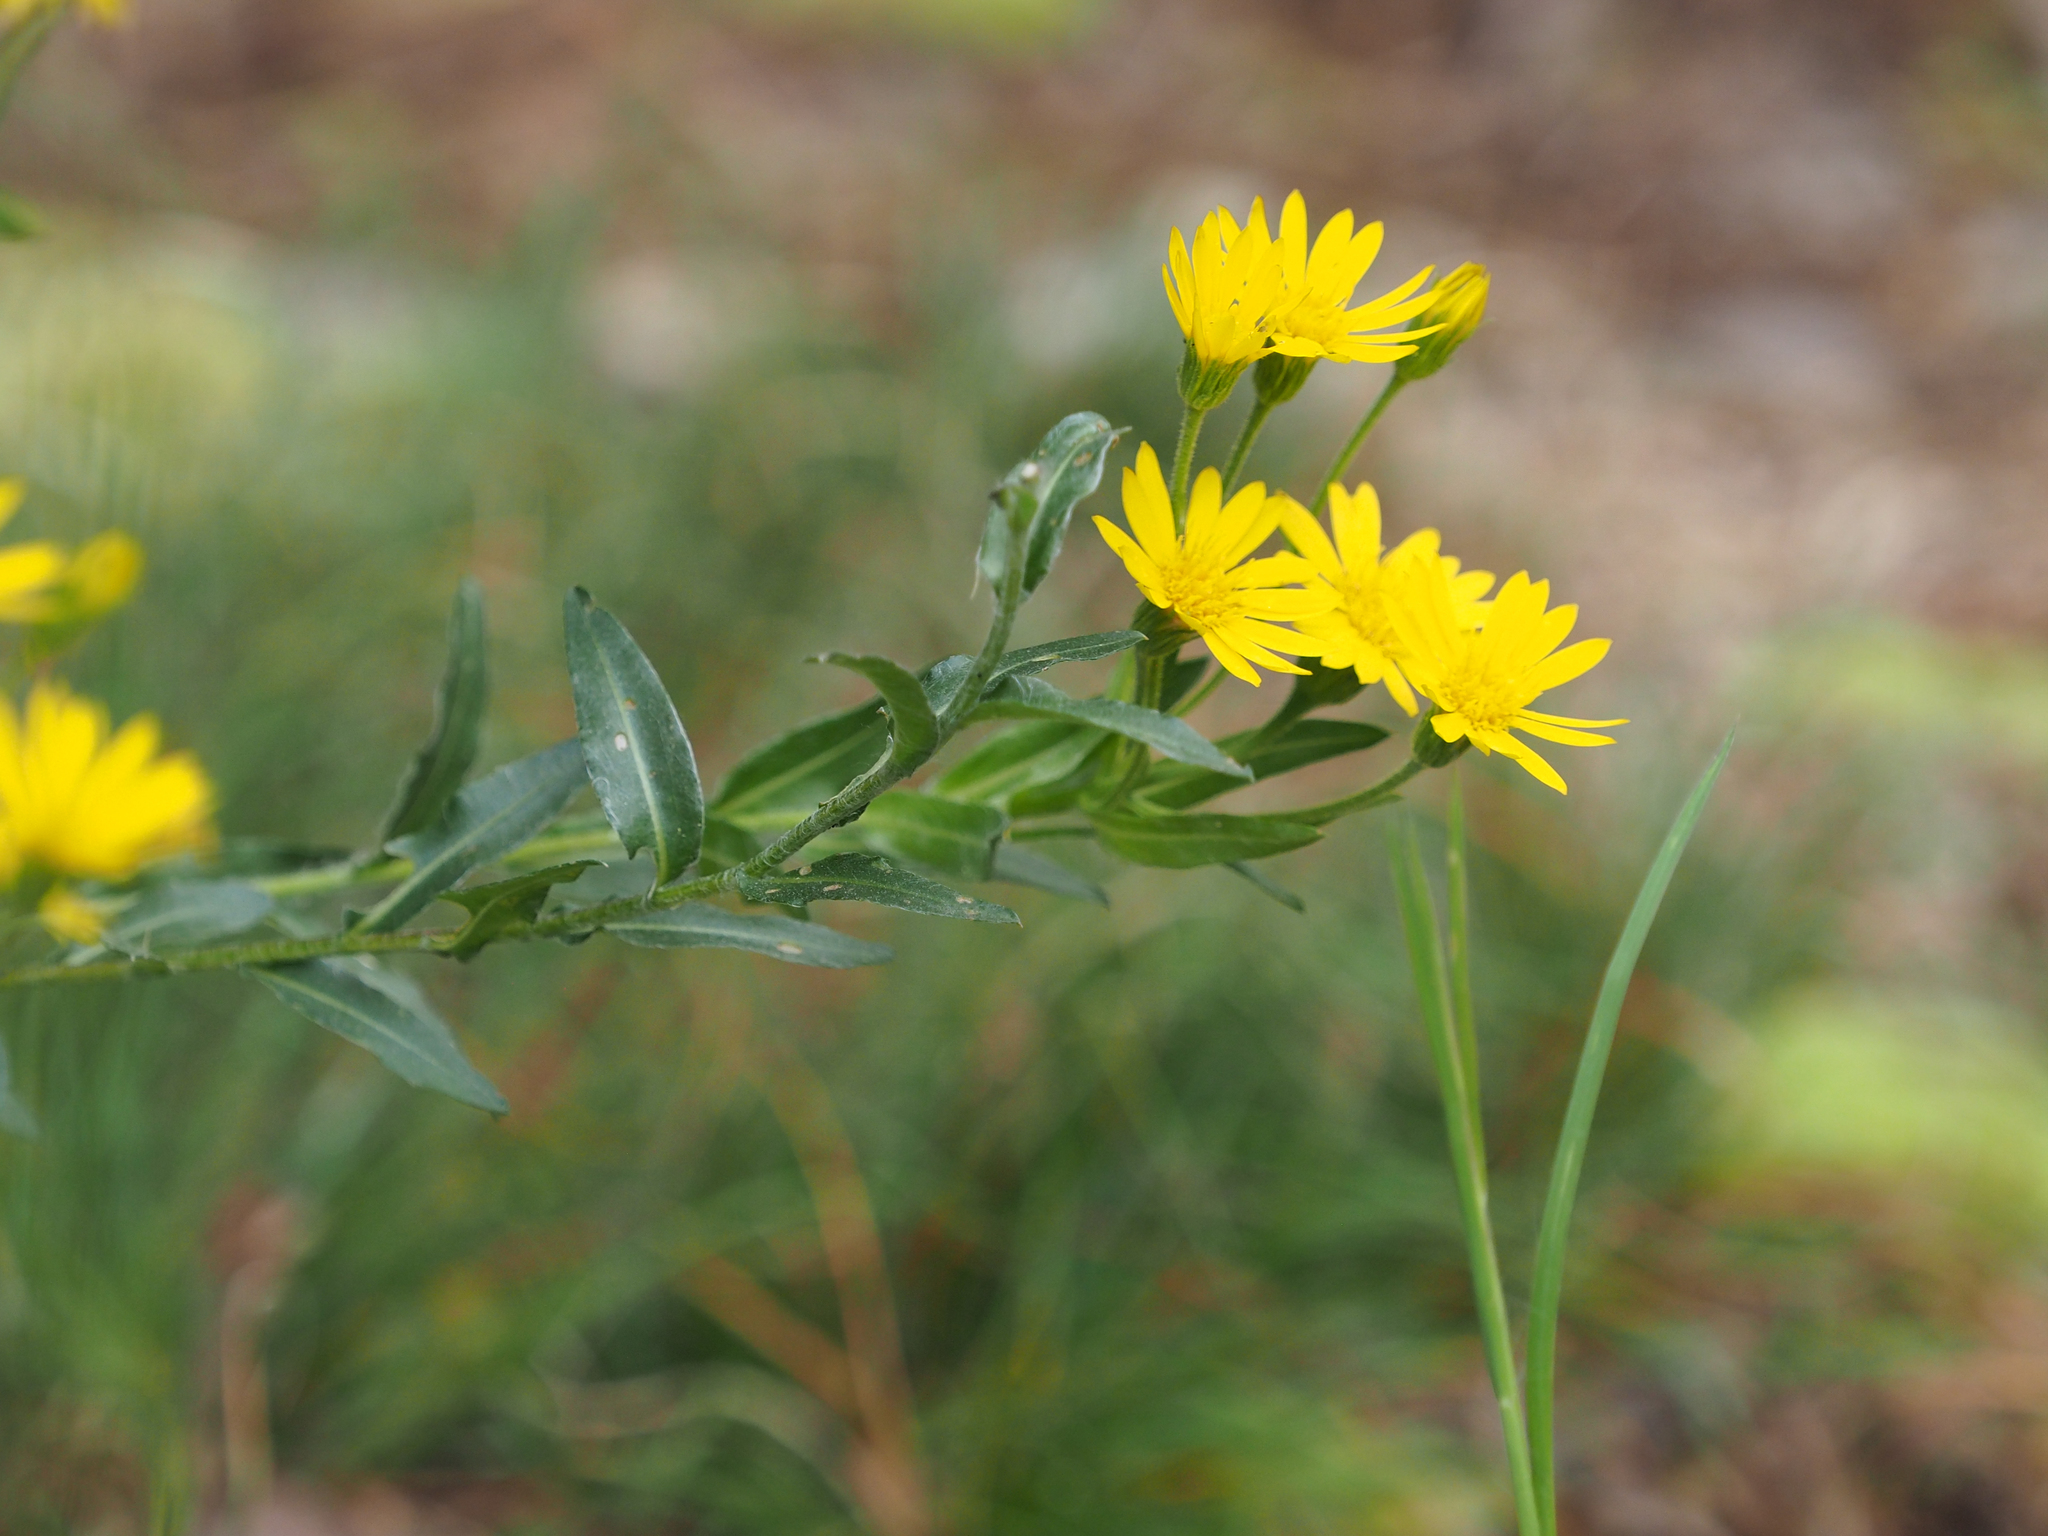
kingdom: Plantae
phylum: Tracheophyta
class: Magnoliopsida
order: Asterales
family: Asteraceae
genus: Chrysopsis
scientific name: Chrysopsis mariana
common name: Maryland golden-aster
